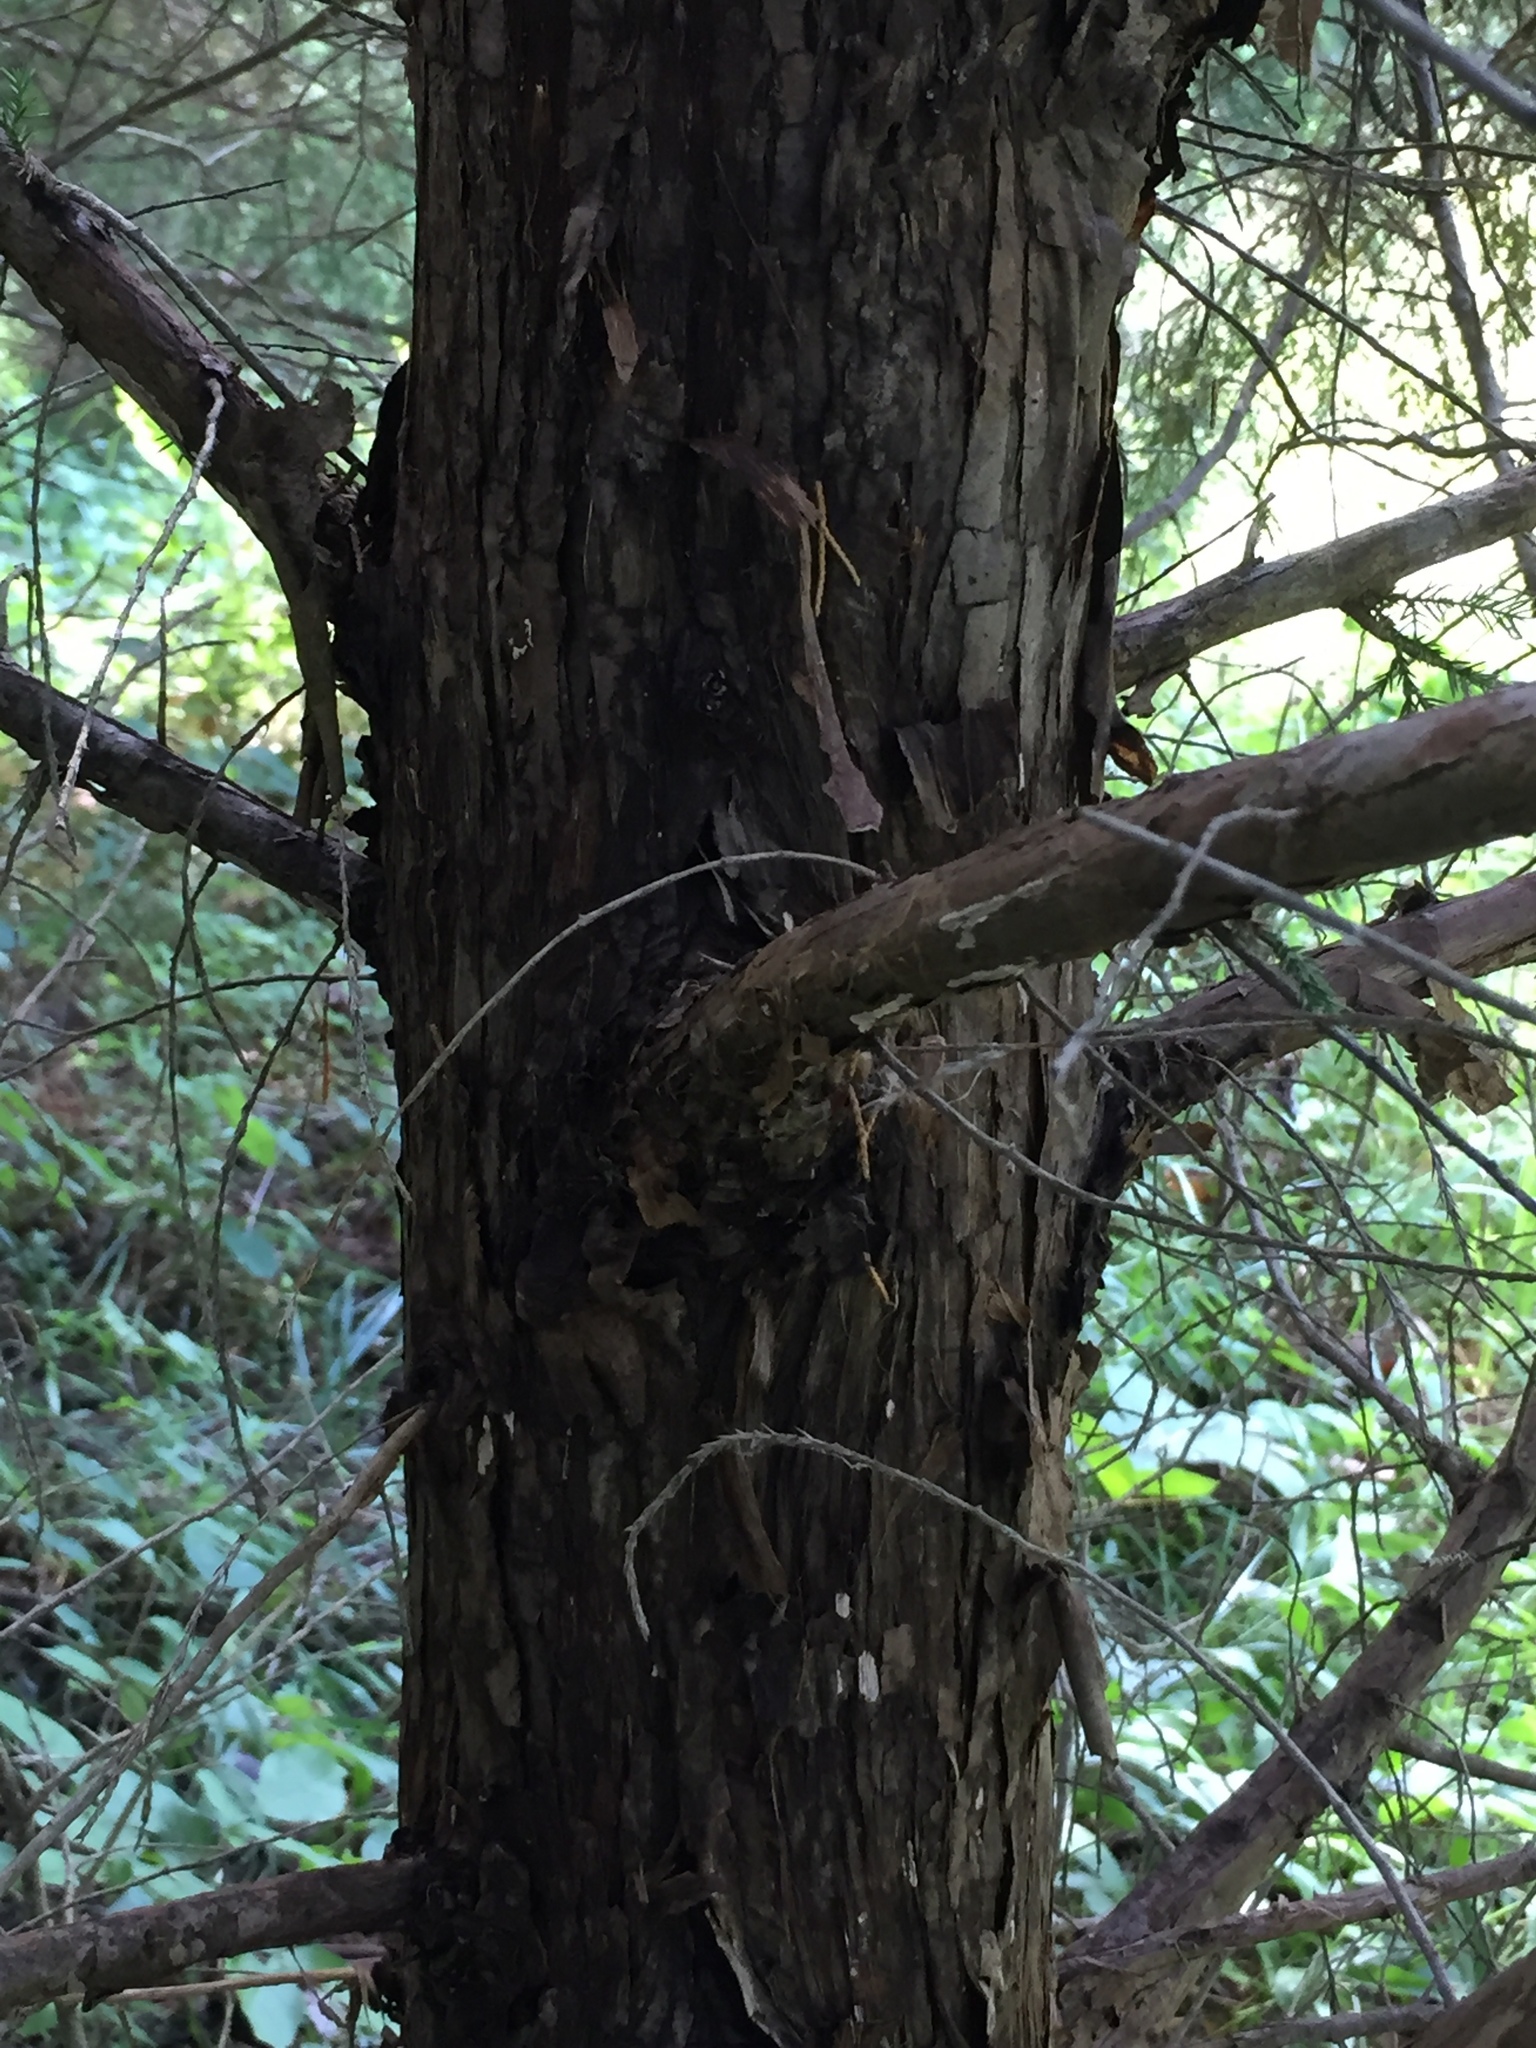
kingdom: Plantae
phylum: Tracheophyta
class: Pinopsida
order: Pinales
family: Cupressaceae
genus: Juniperus
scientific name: Juniperus virginiana
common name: Red juniper
